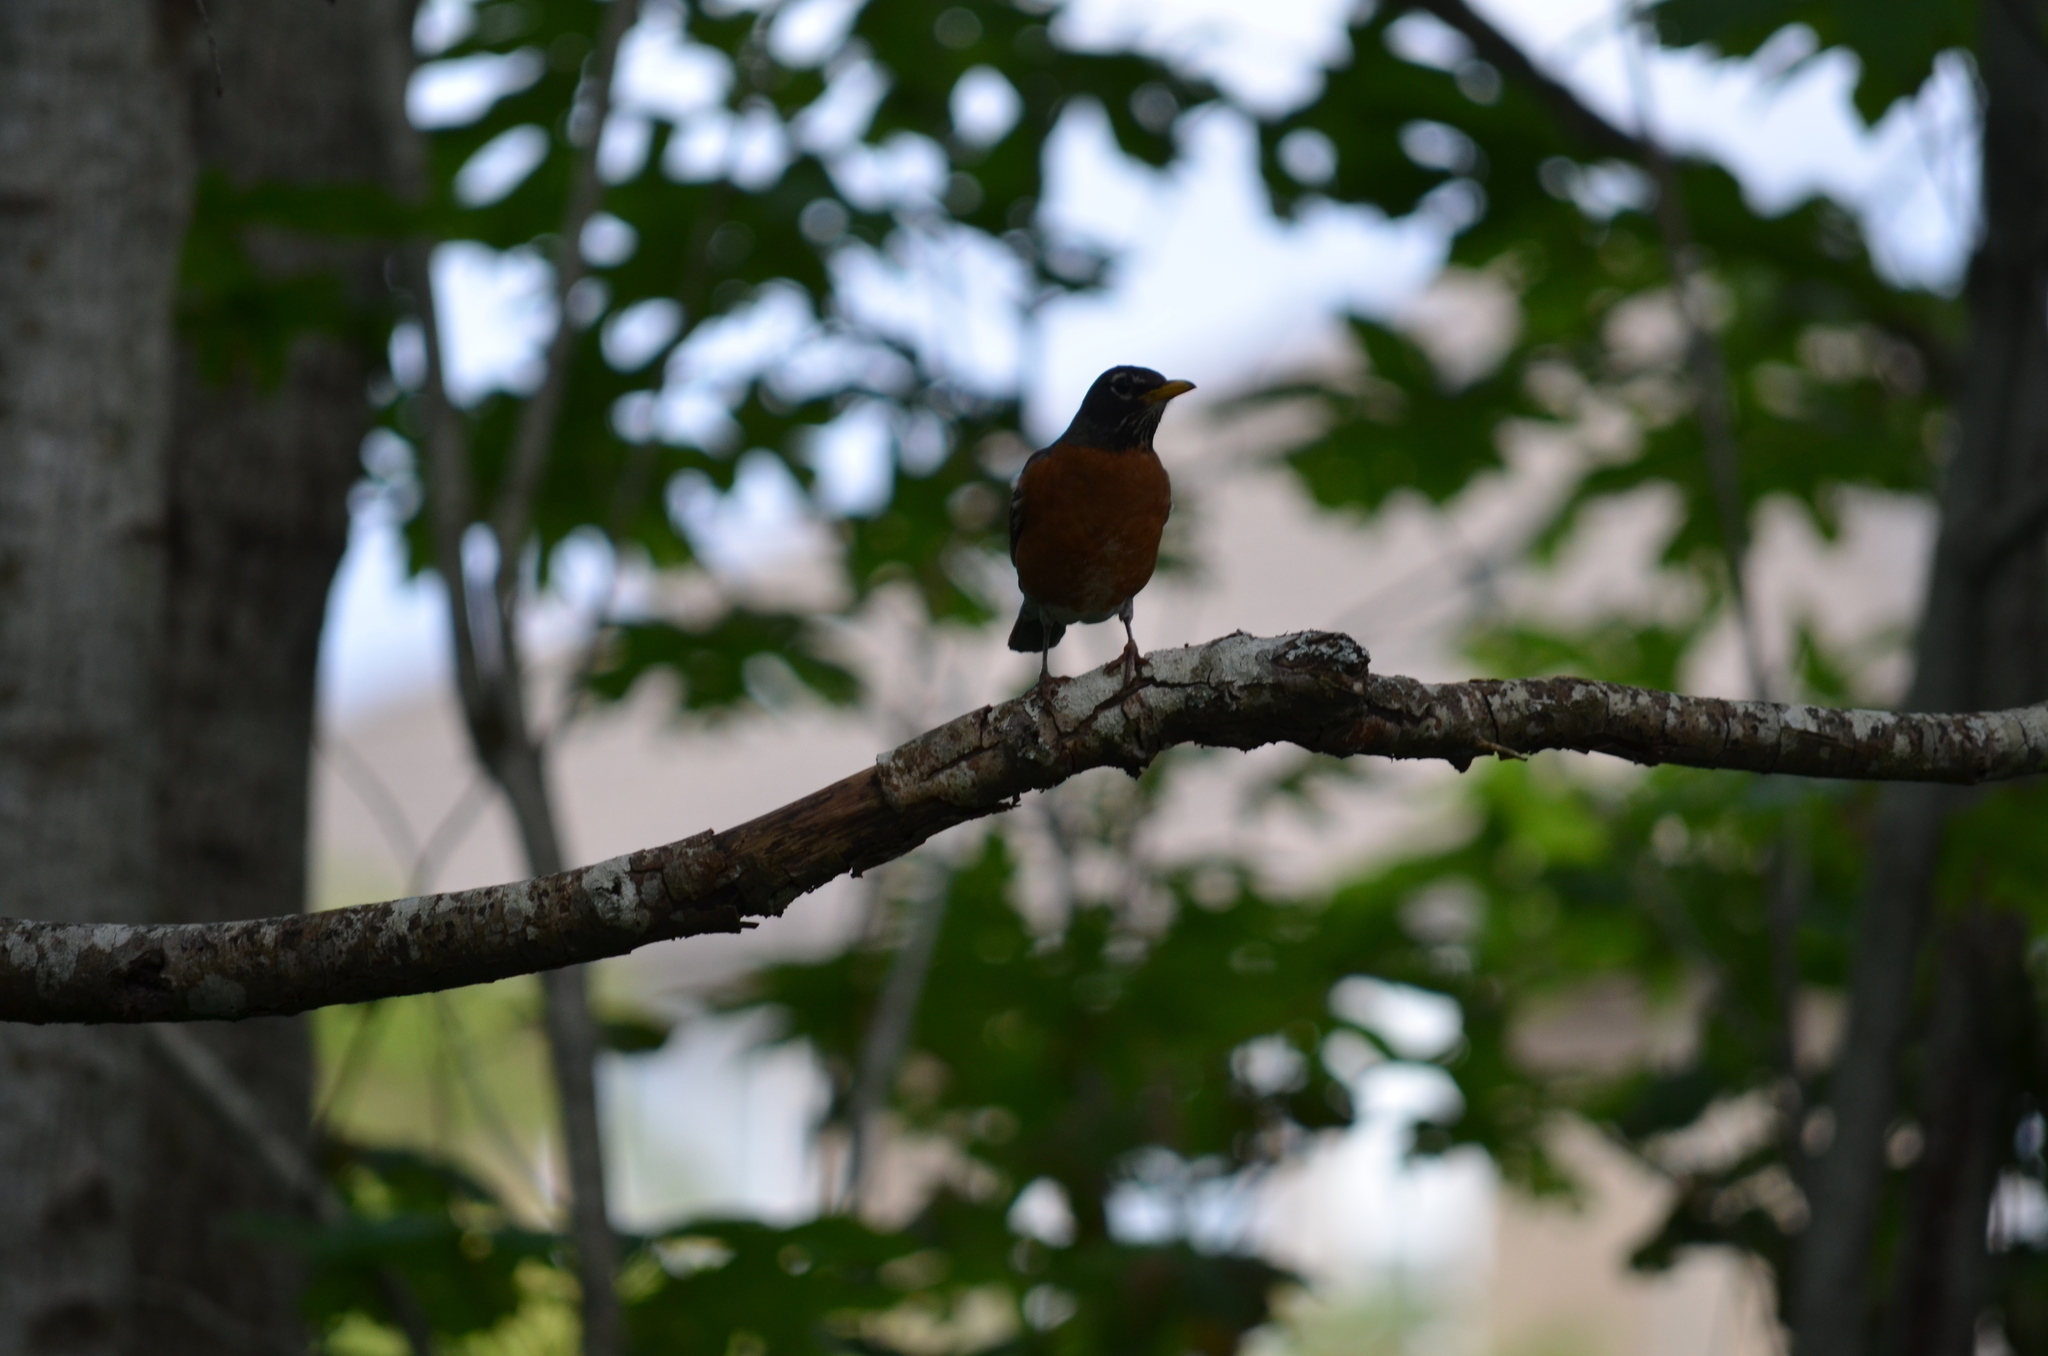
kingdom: Animalia
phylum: Chordata
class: Aves
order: Passeriformes
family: Turdidae
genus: Turdus
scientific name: Turdus migratorius
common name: American robin
